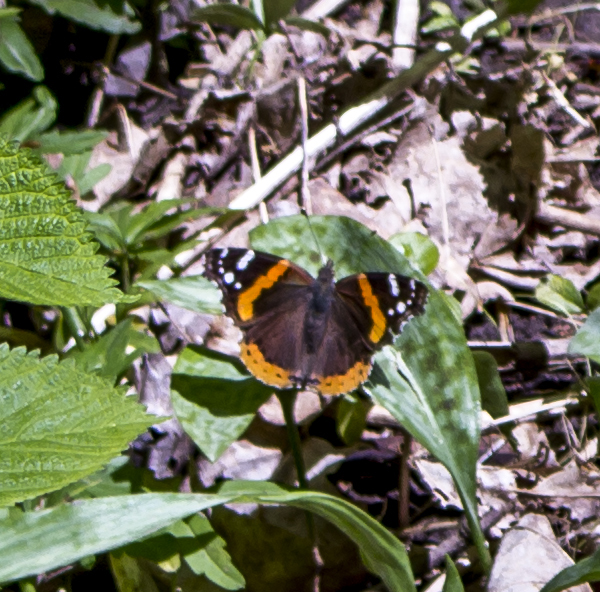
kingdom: Animalia
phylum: Arthropoda
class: Insecta
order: Lepidoptera
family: Nymphalidae
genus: Vanessa
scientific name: Vanessa atalanta
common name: Red admiral
